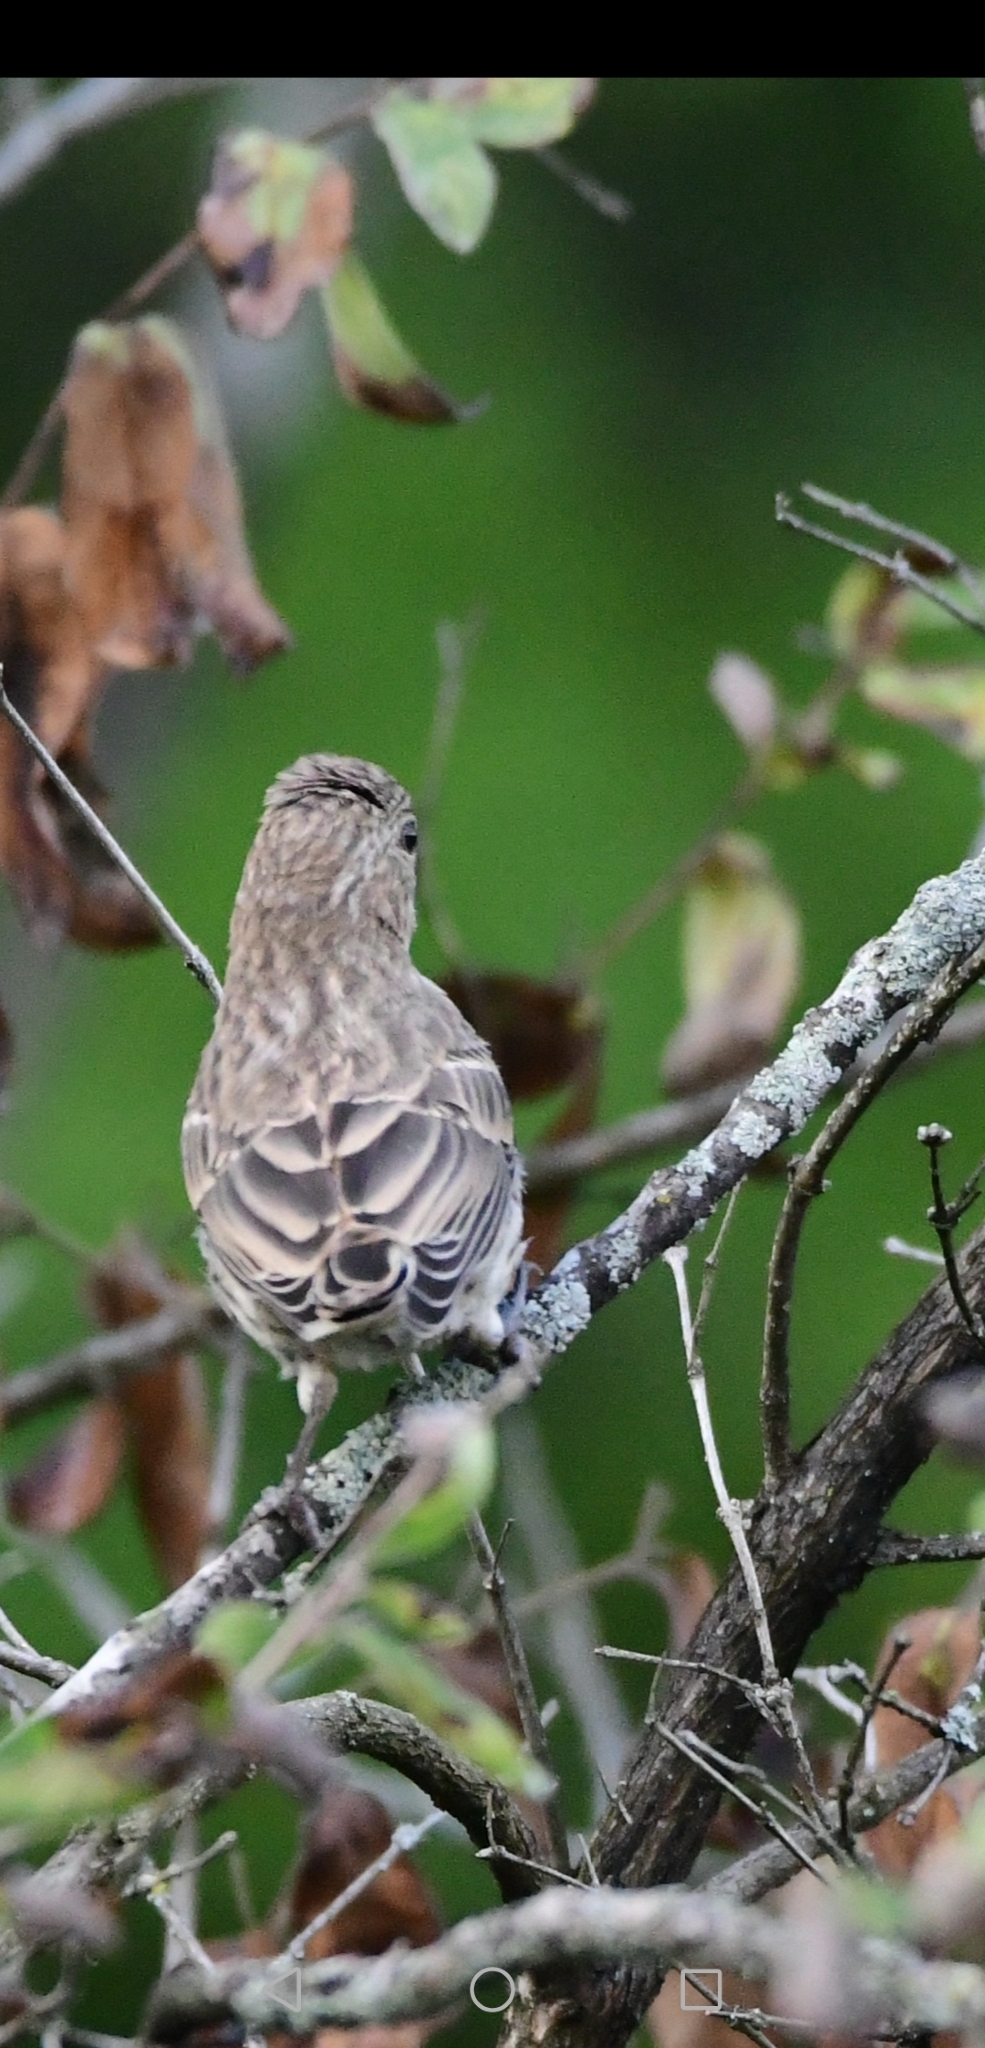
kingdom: Animalia
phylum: Chordata
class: Aves
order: Passeriformes
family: Fringillidae
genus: Haemorhous
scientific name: Haemorhous mexicanus
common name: House finch
